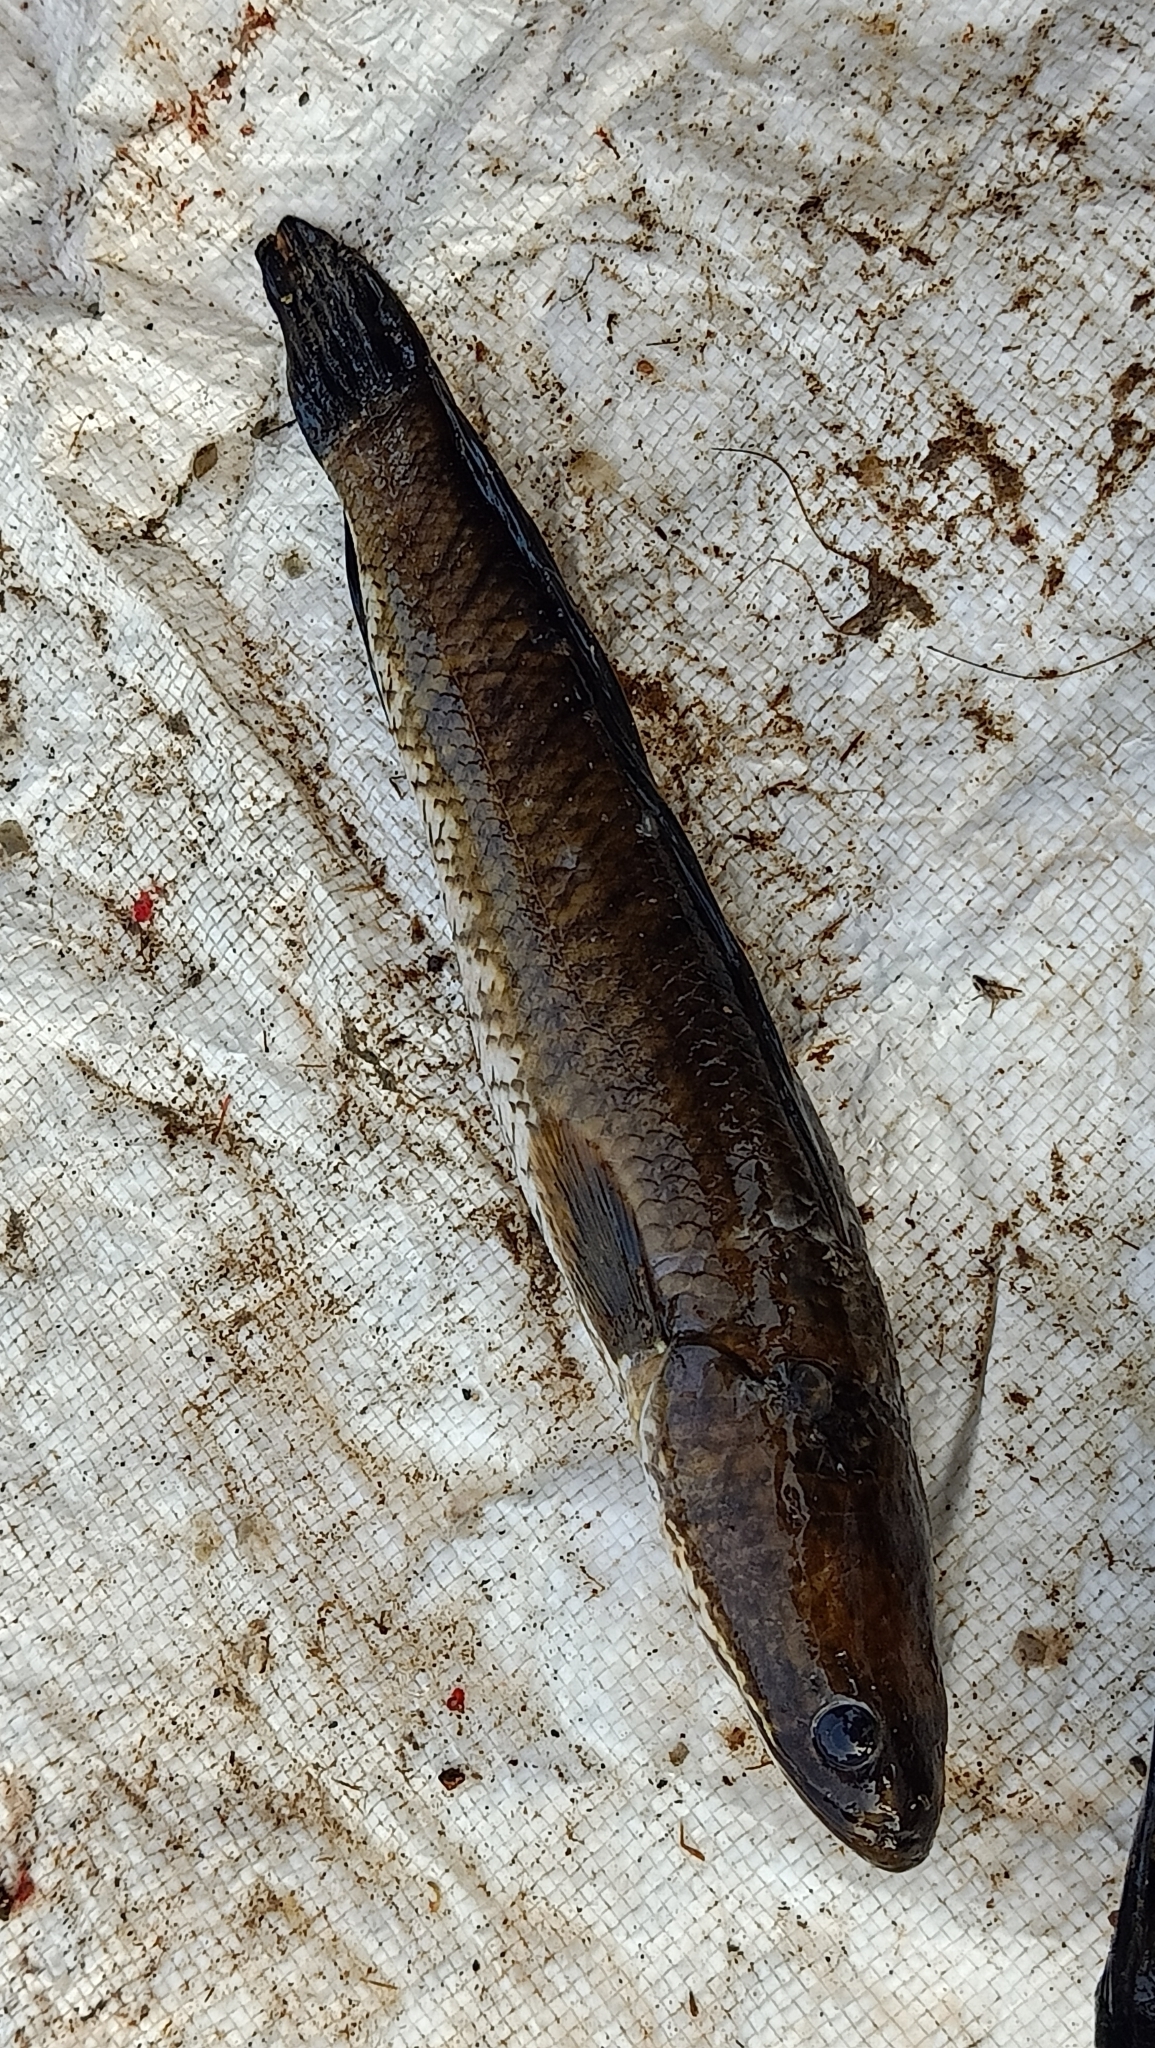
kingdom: Animalia
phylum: Chordata
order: Perciformes
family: Channidae
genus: Channa
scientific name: Channa striata
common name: Striped snakehead
